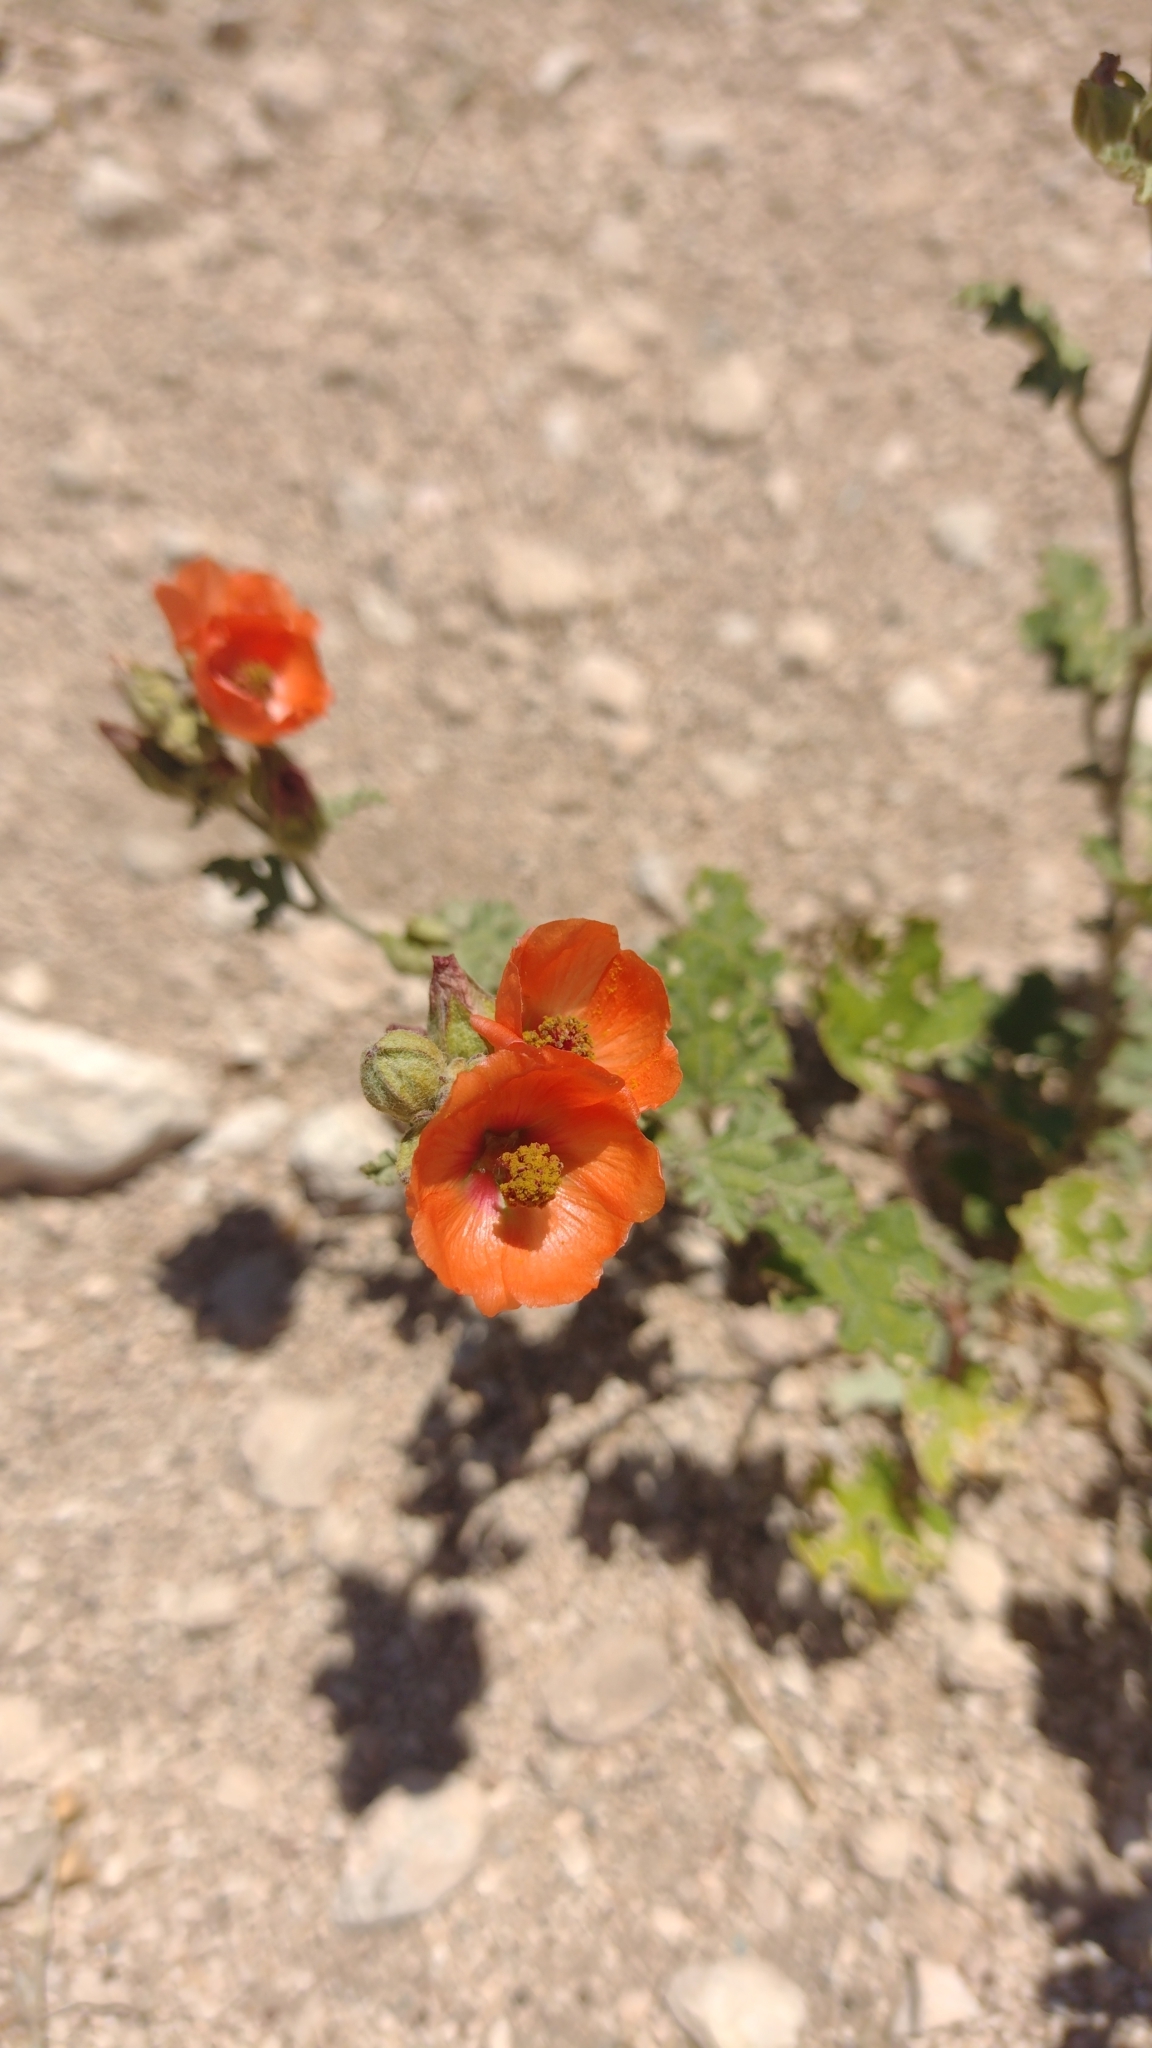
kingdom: Plantae
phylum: Tracheophyta
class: Magnoliopsida
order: Malvales
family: Malvaceae
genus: Sphaeralcea
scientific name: Sphaeralcea miniata
